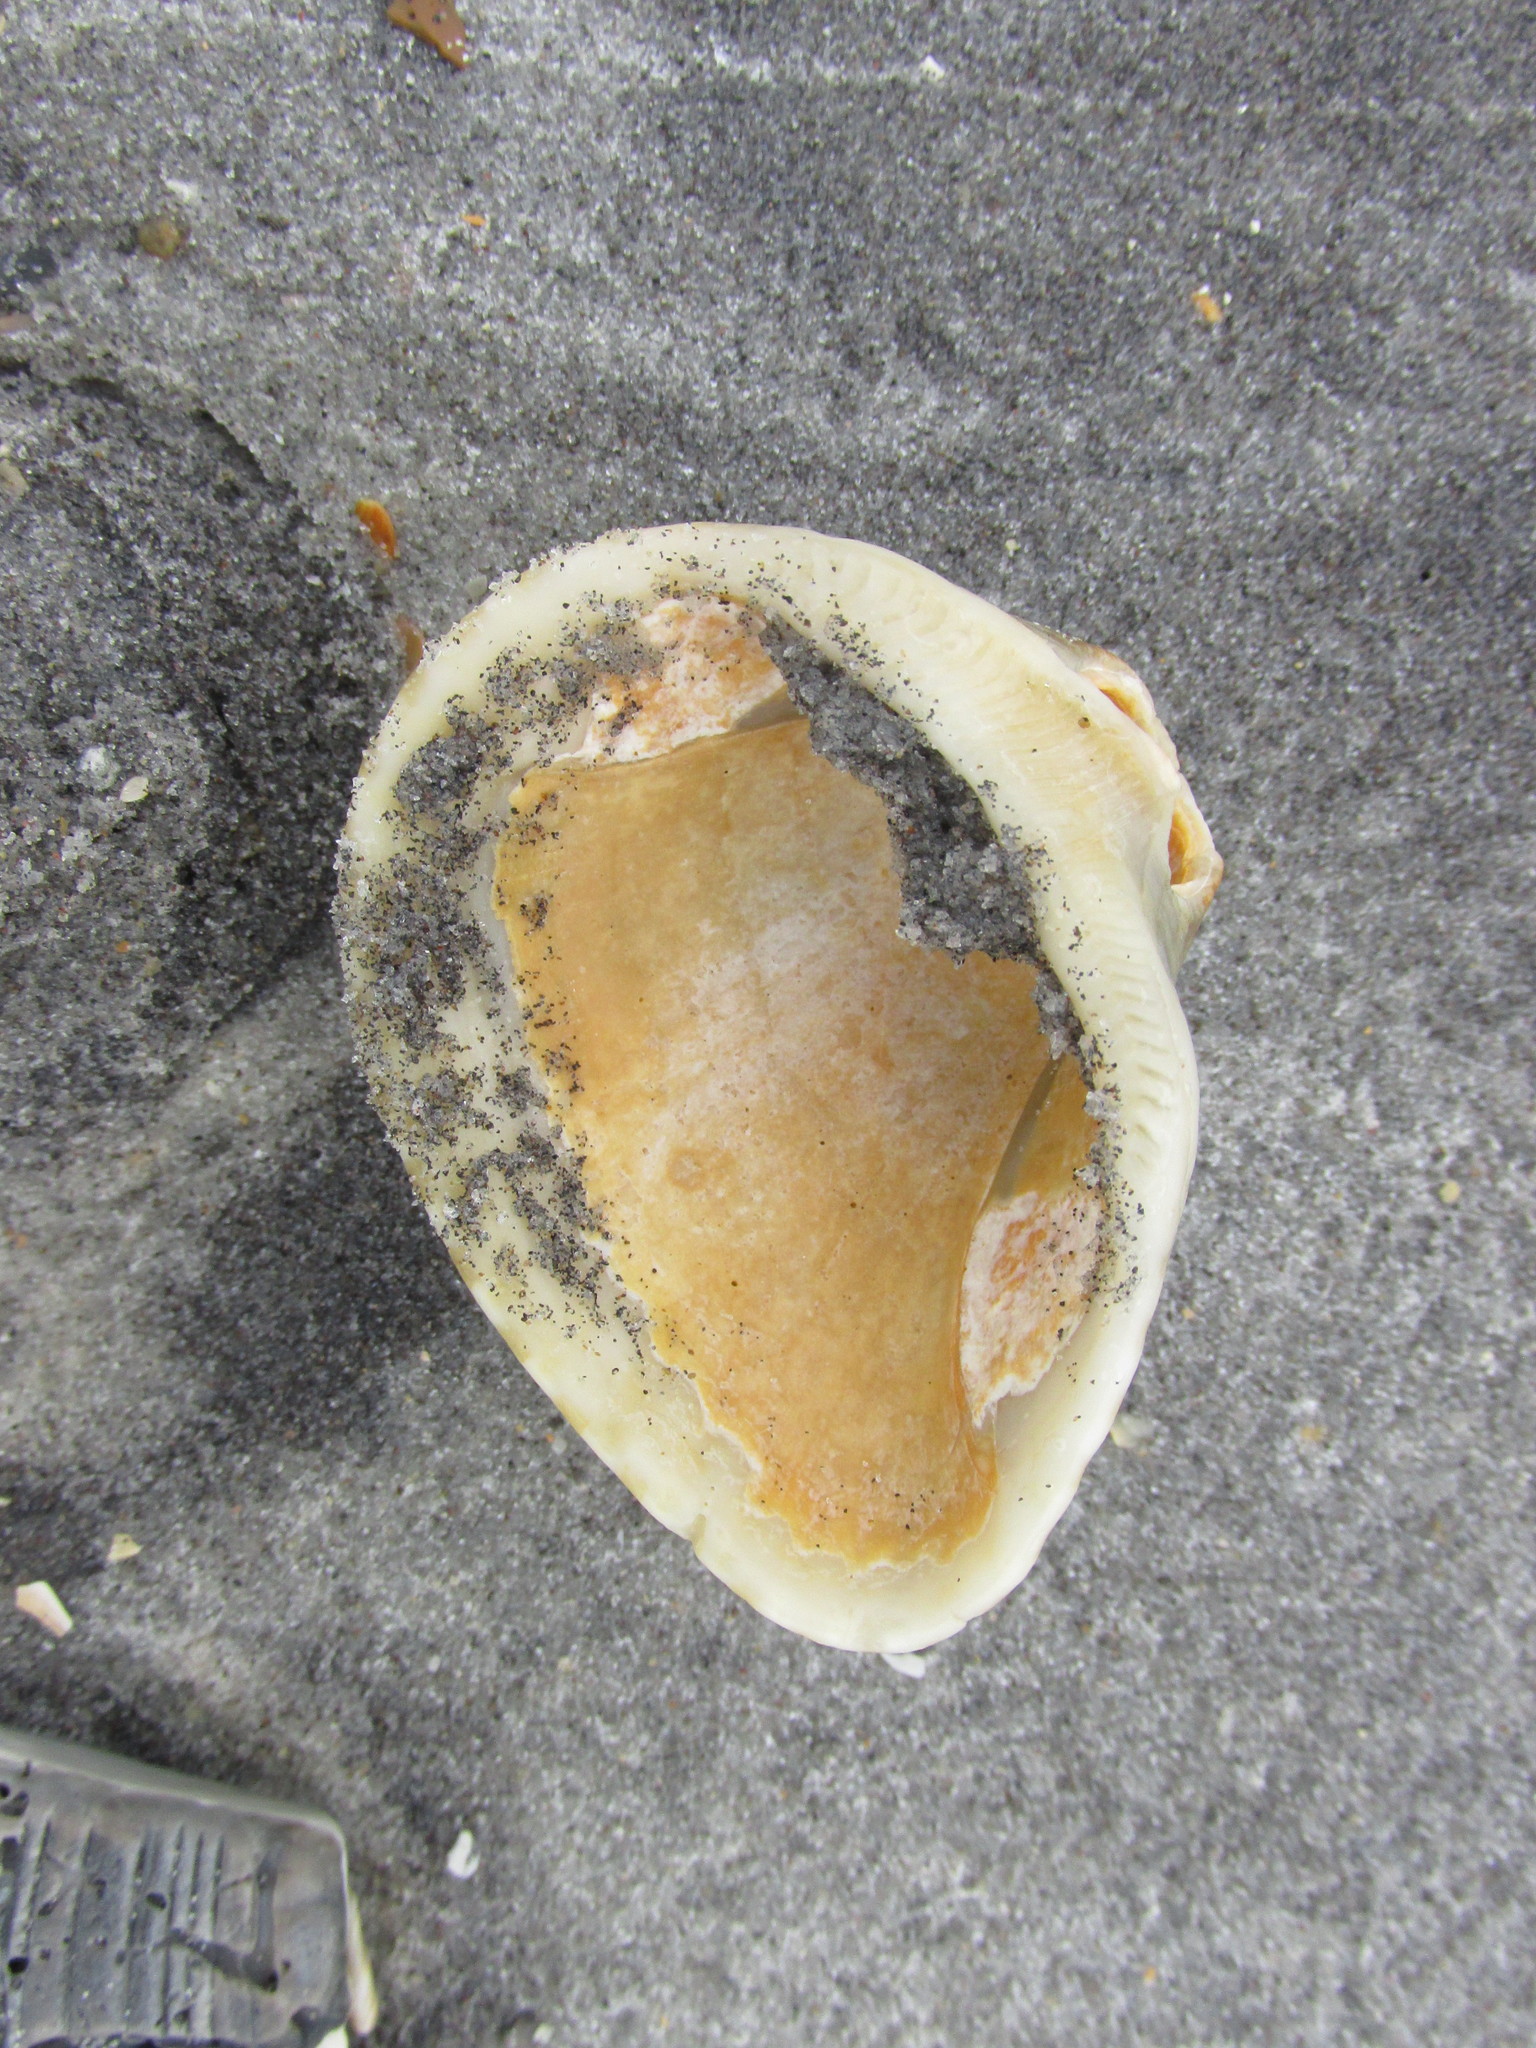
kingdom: Animalia
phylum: Mollusca
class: Bivalvia
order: Arcida
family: Noetiidae
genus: Noetia
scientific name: Noetia ponderosa
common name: Ponderous ark
